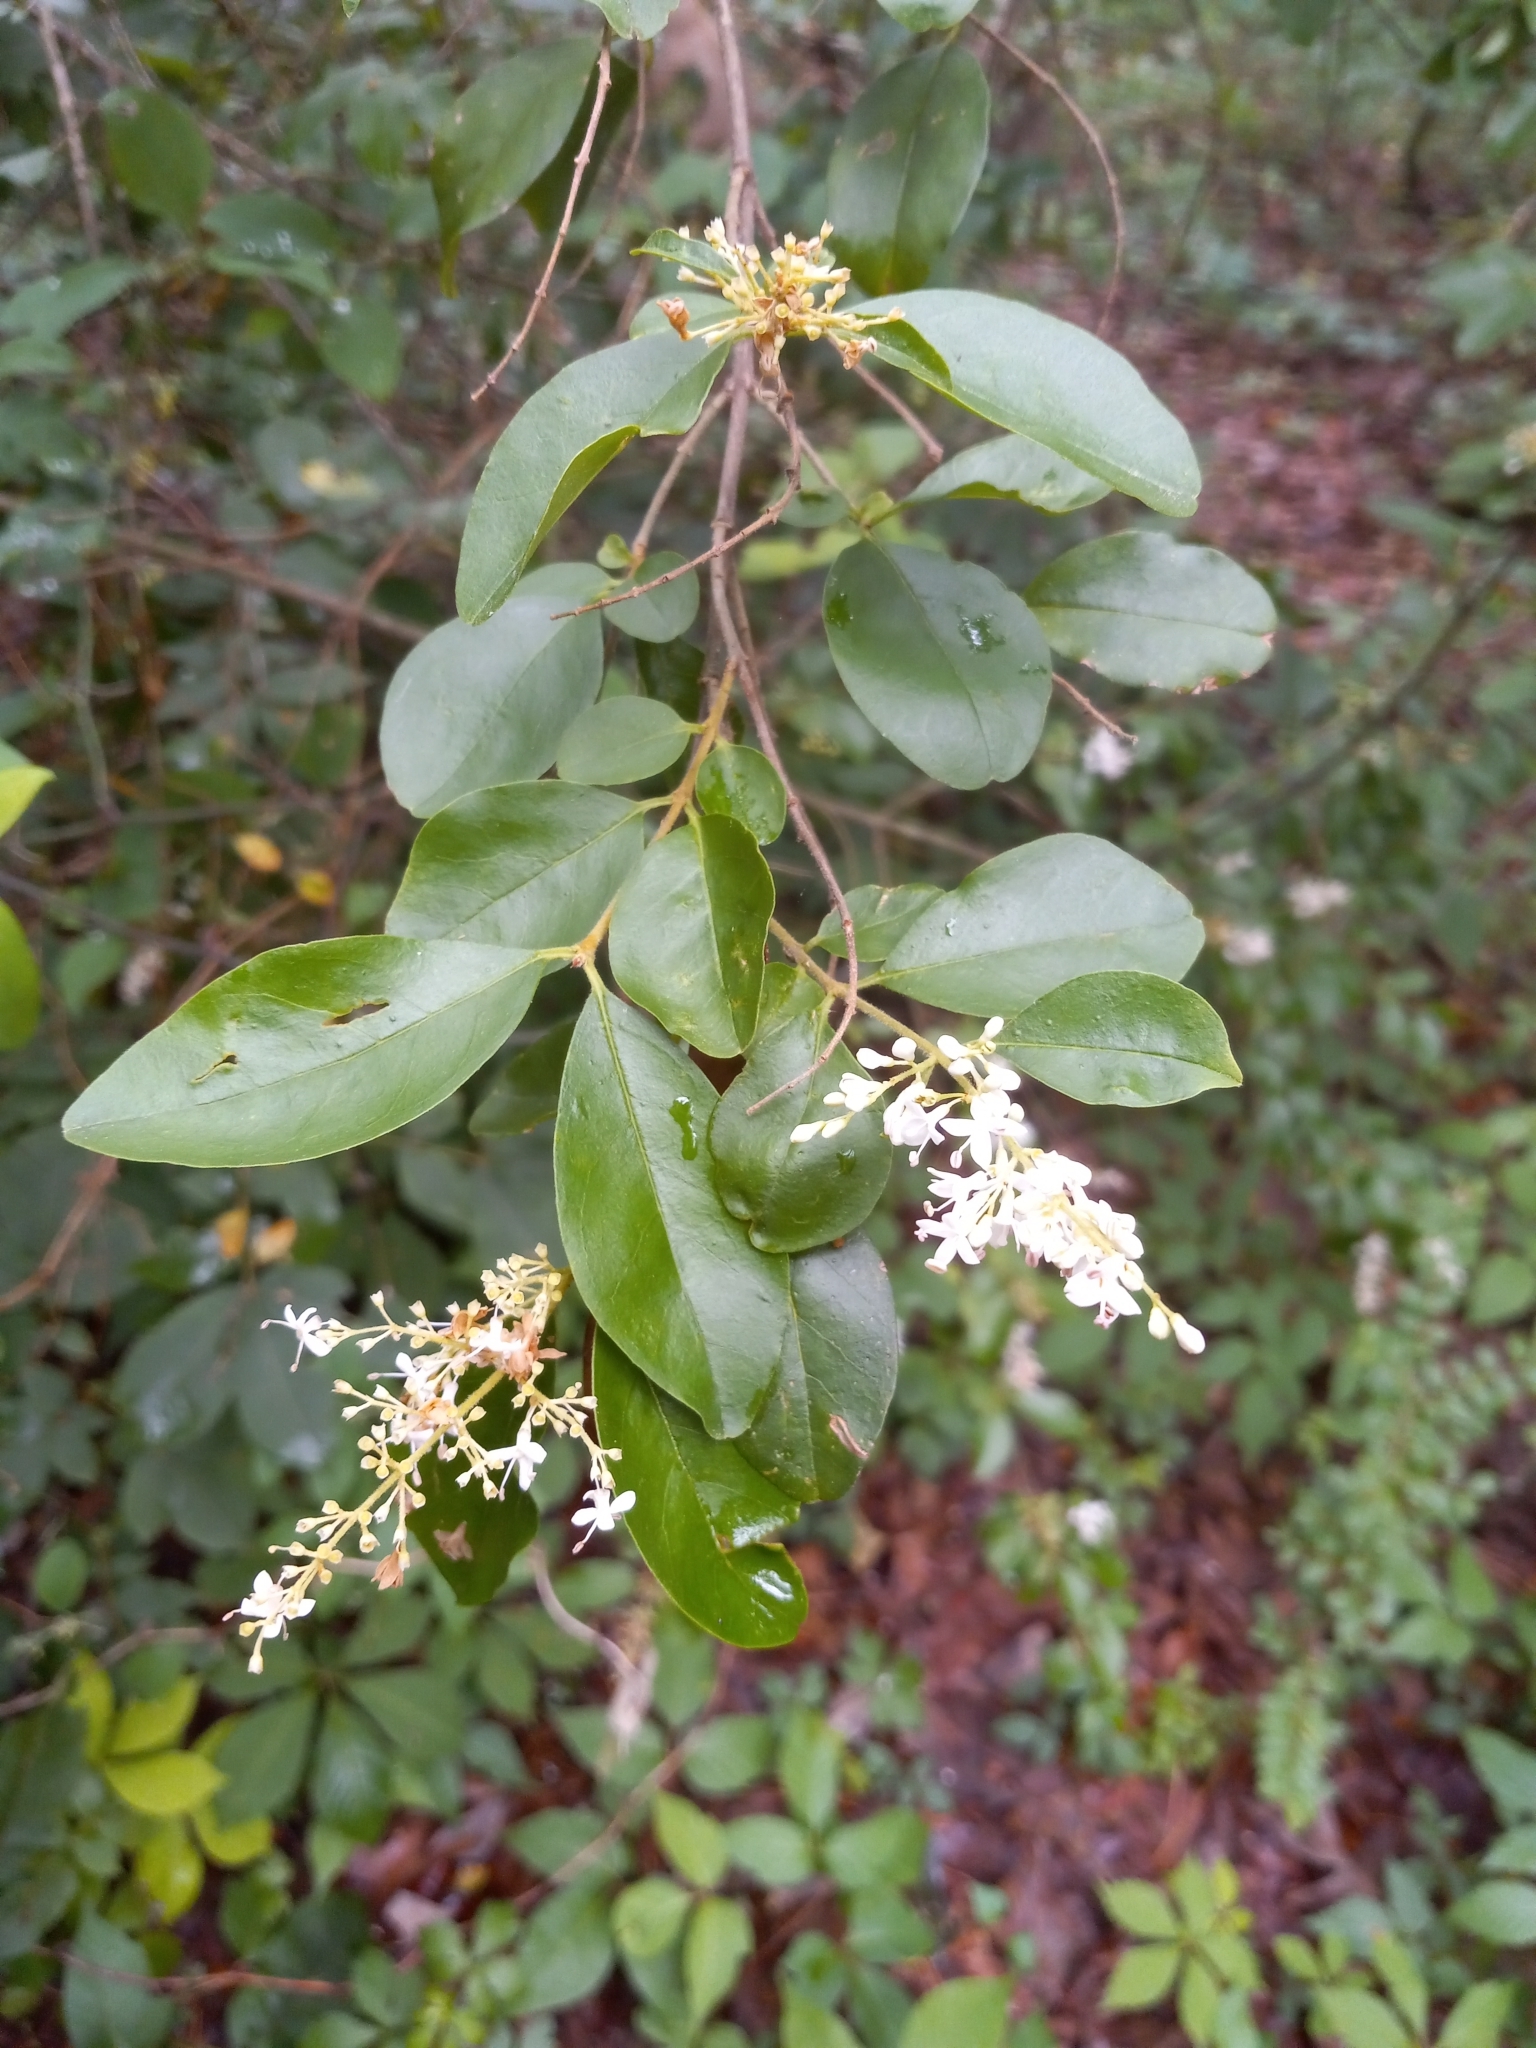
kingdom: Plantae
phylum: Tracheophyta
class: Magnoliopsida
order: Lamiales
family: Oleaceae
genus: Ligustrum
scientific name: Ligustrum sinense
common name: Chinese privet
